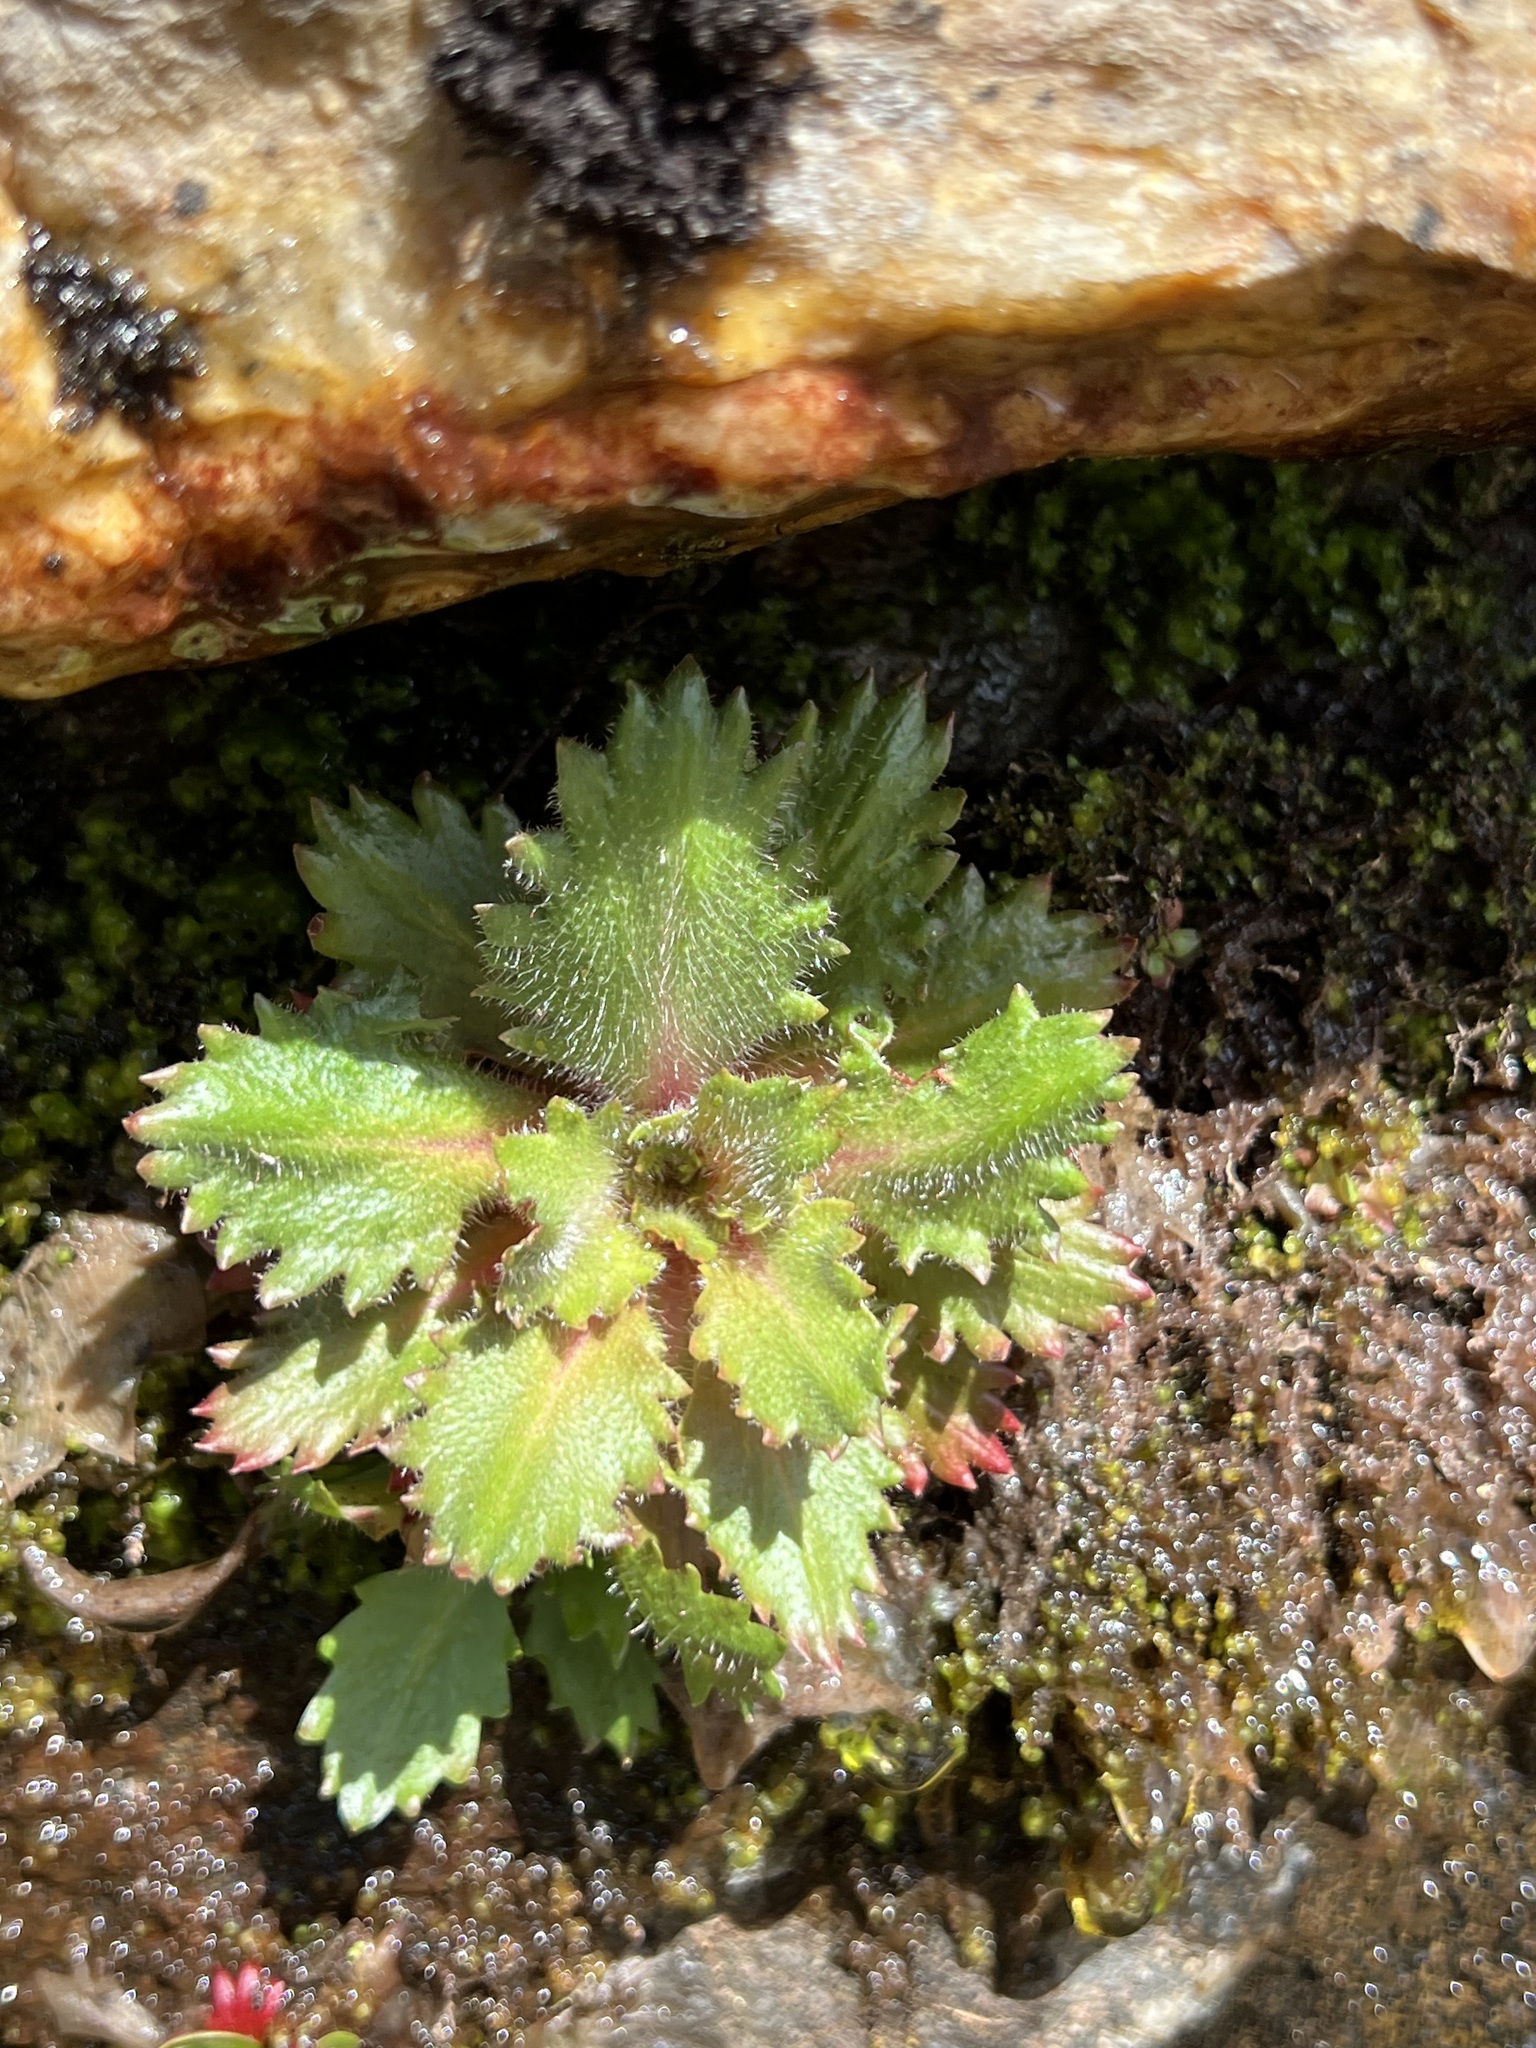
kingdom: Plantae
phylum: Tracheophyta
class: Magnoliopsida
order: Saxifragales
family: Saxifragaceae
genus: Micranthes
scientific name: Micranthes petiolaris
